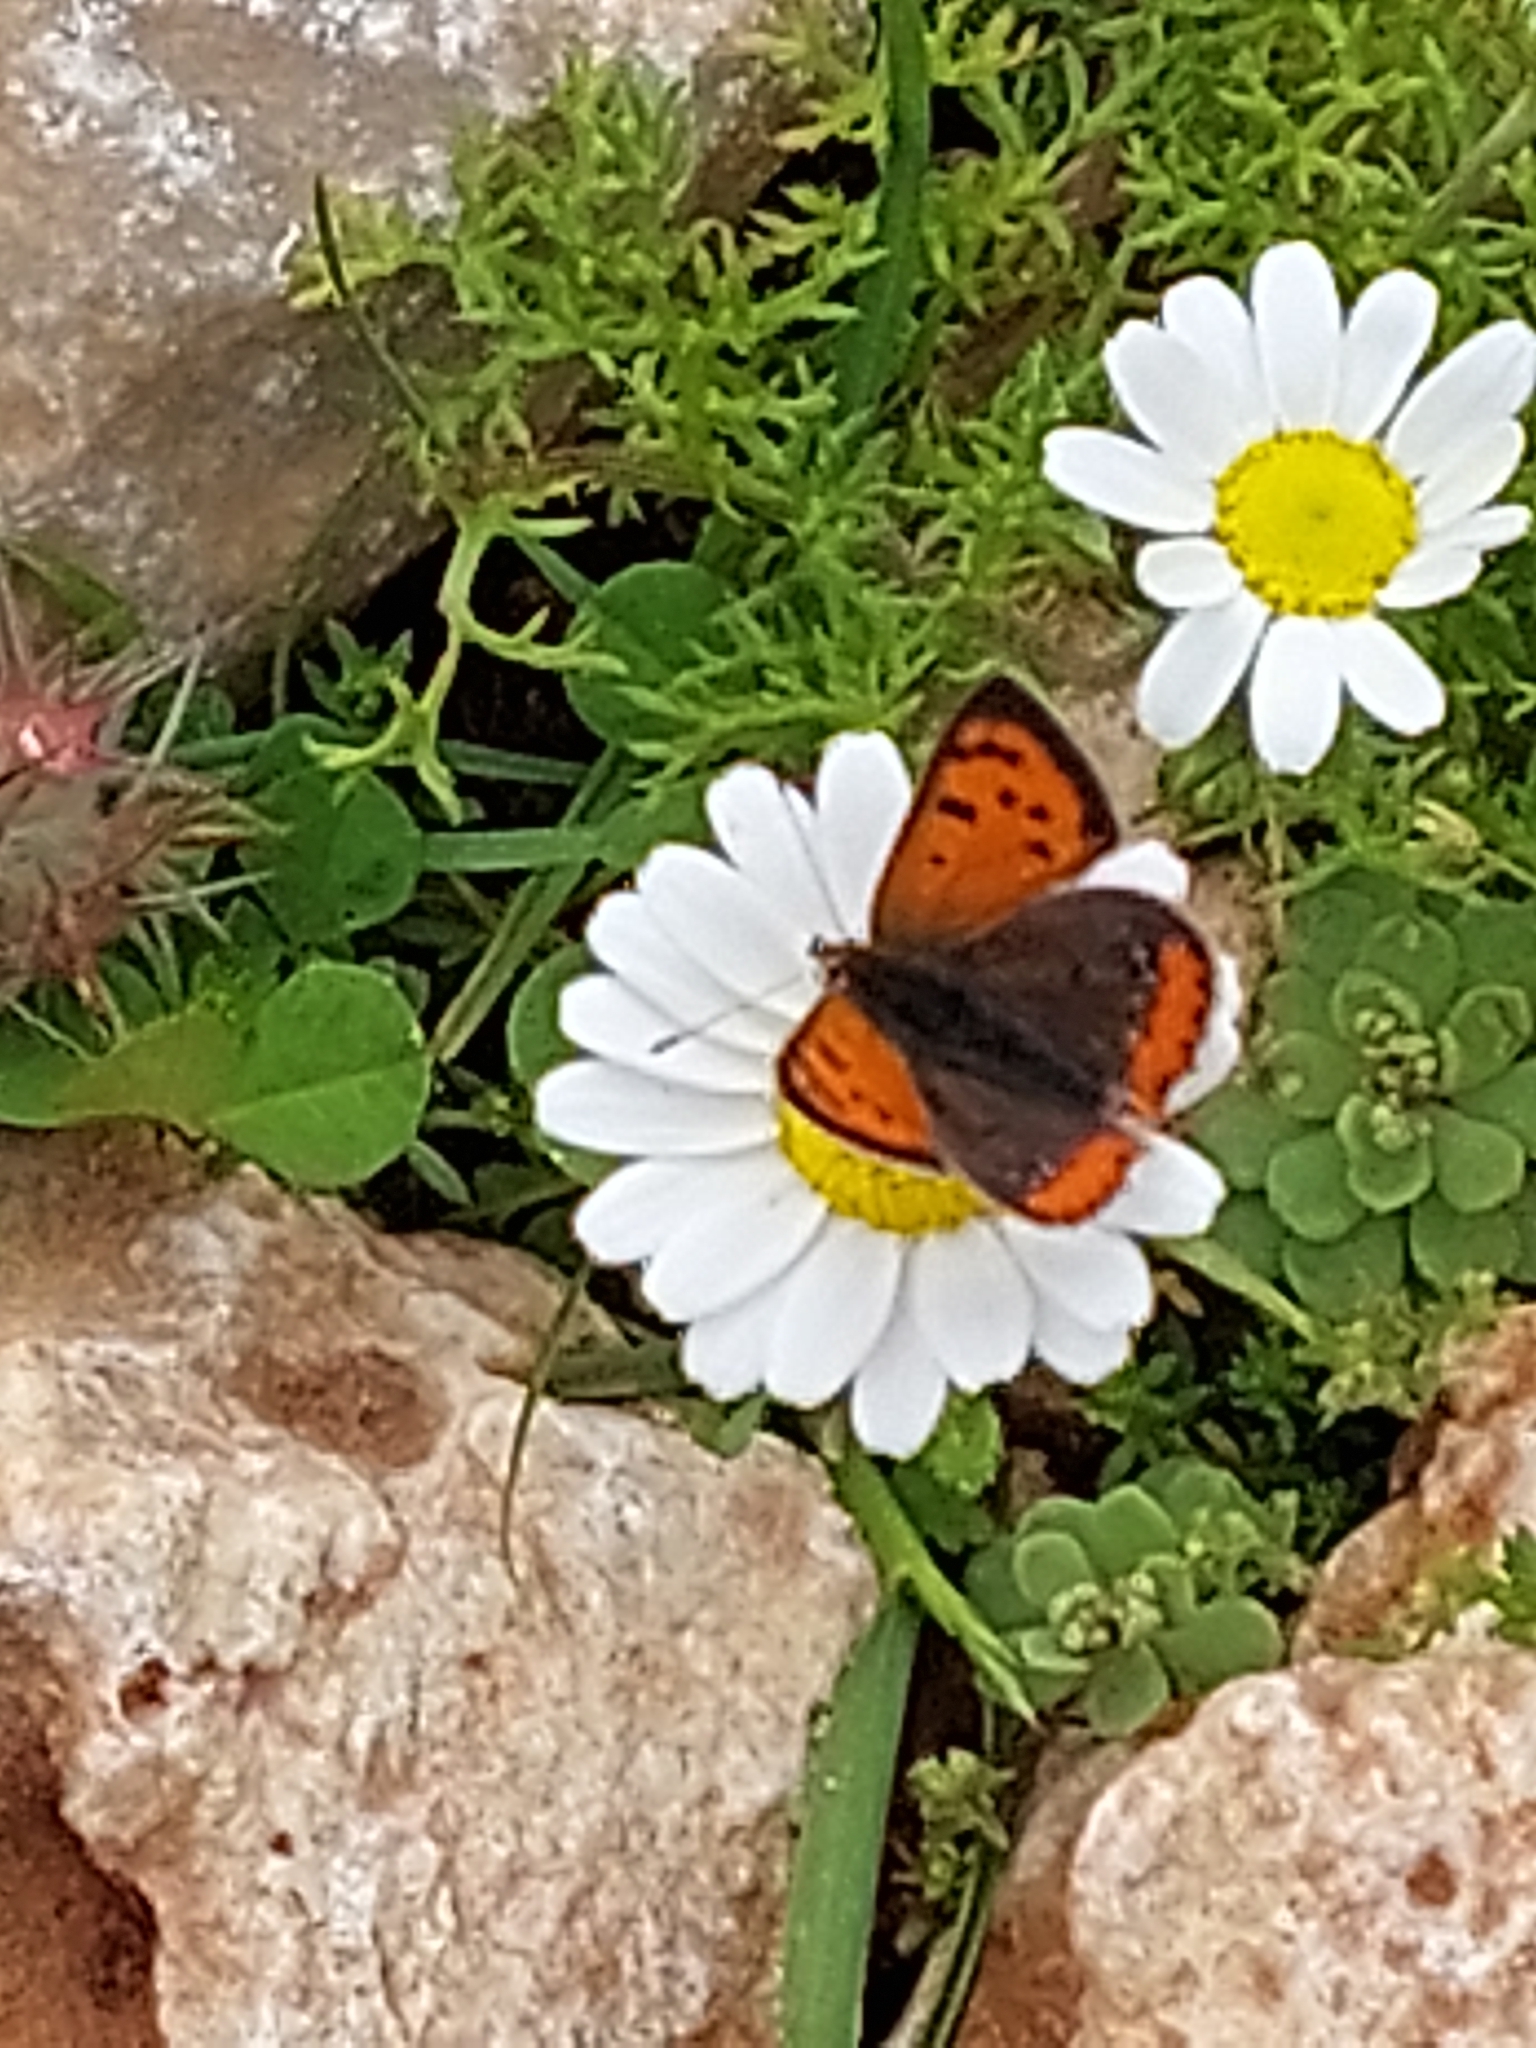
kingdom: Animalia
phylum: Arthropoda
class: Insecta
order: Lepidoptera
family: Lycaenidae
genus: Lycaena
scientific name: Lycaena phlaeas
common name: Small copper
